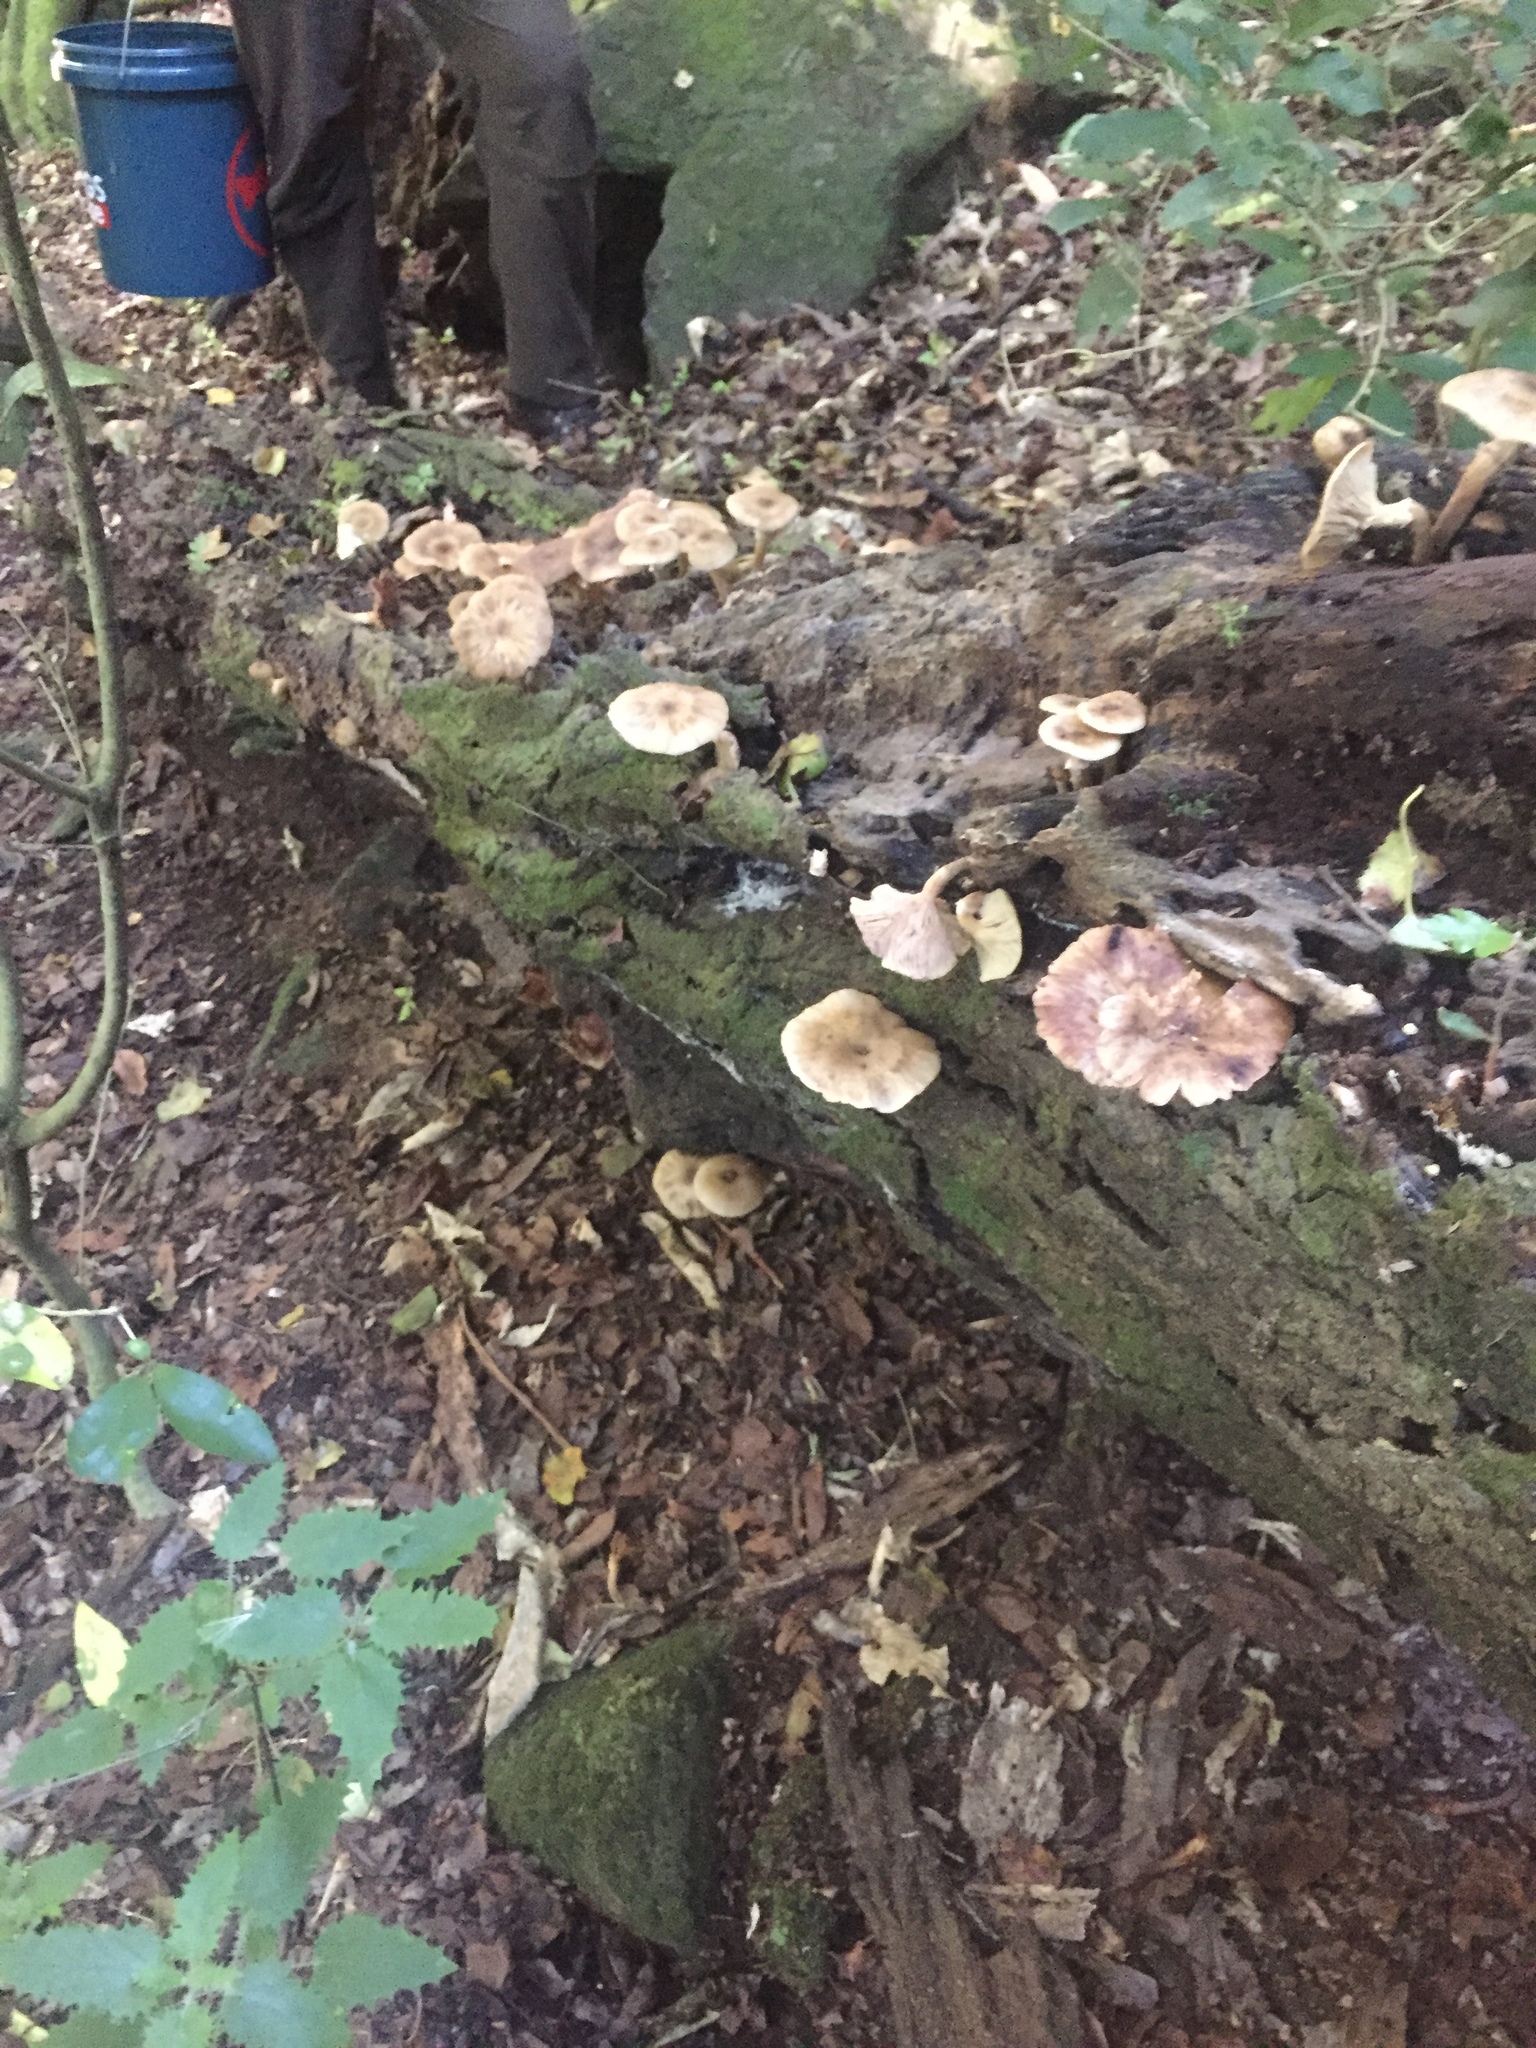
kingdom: Fungi
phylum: Basidiomycota
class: Agaricomycetes
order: Agaricales
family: Physalacriaceae
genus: Armillaria
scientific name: Armillaria novae-zelandiae
